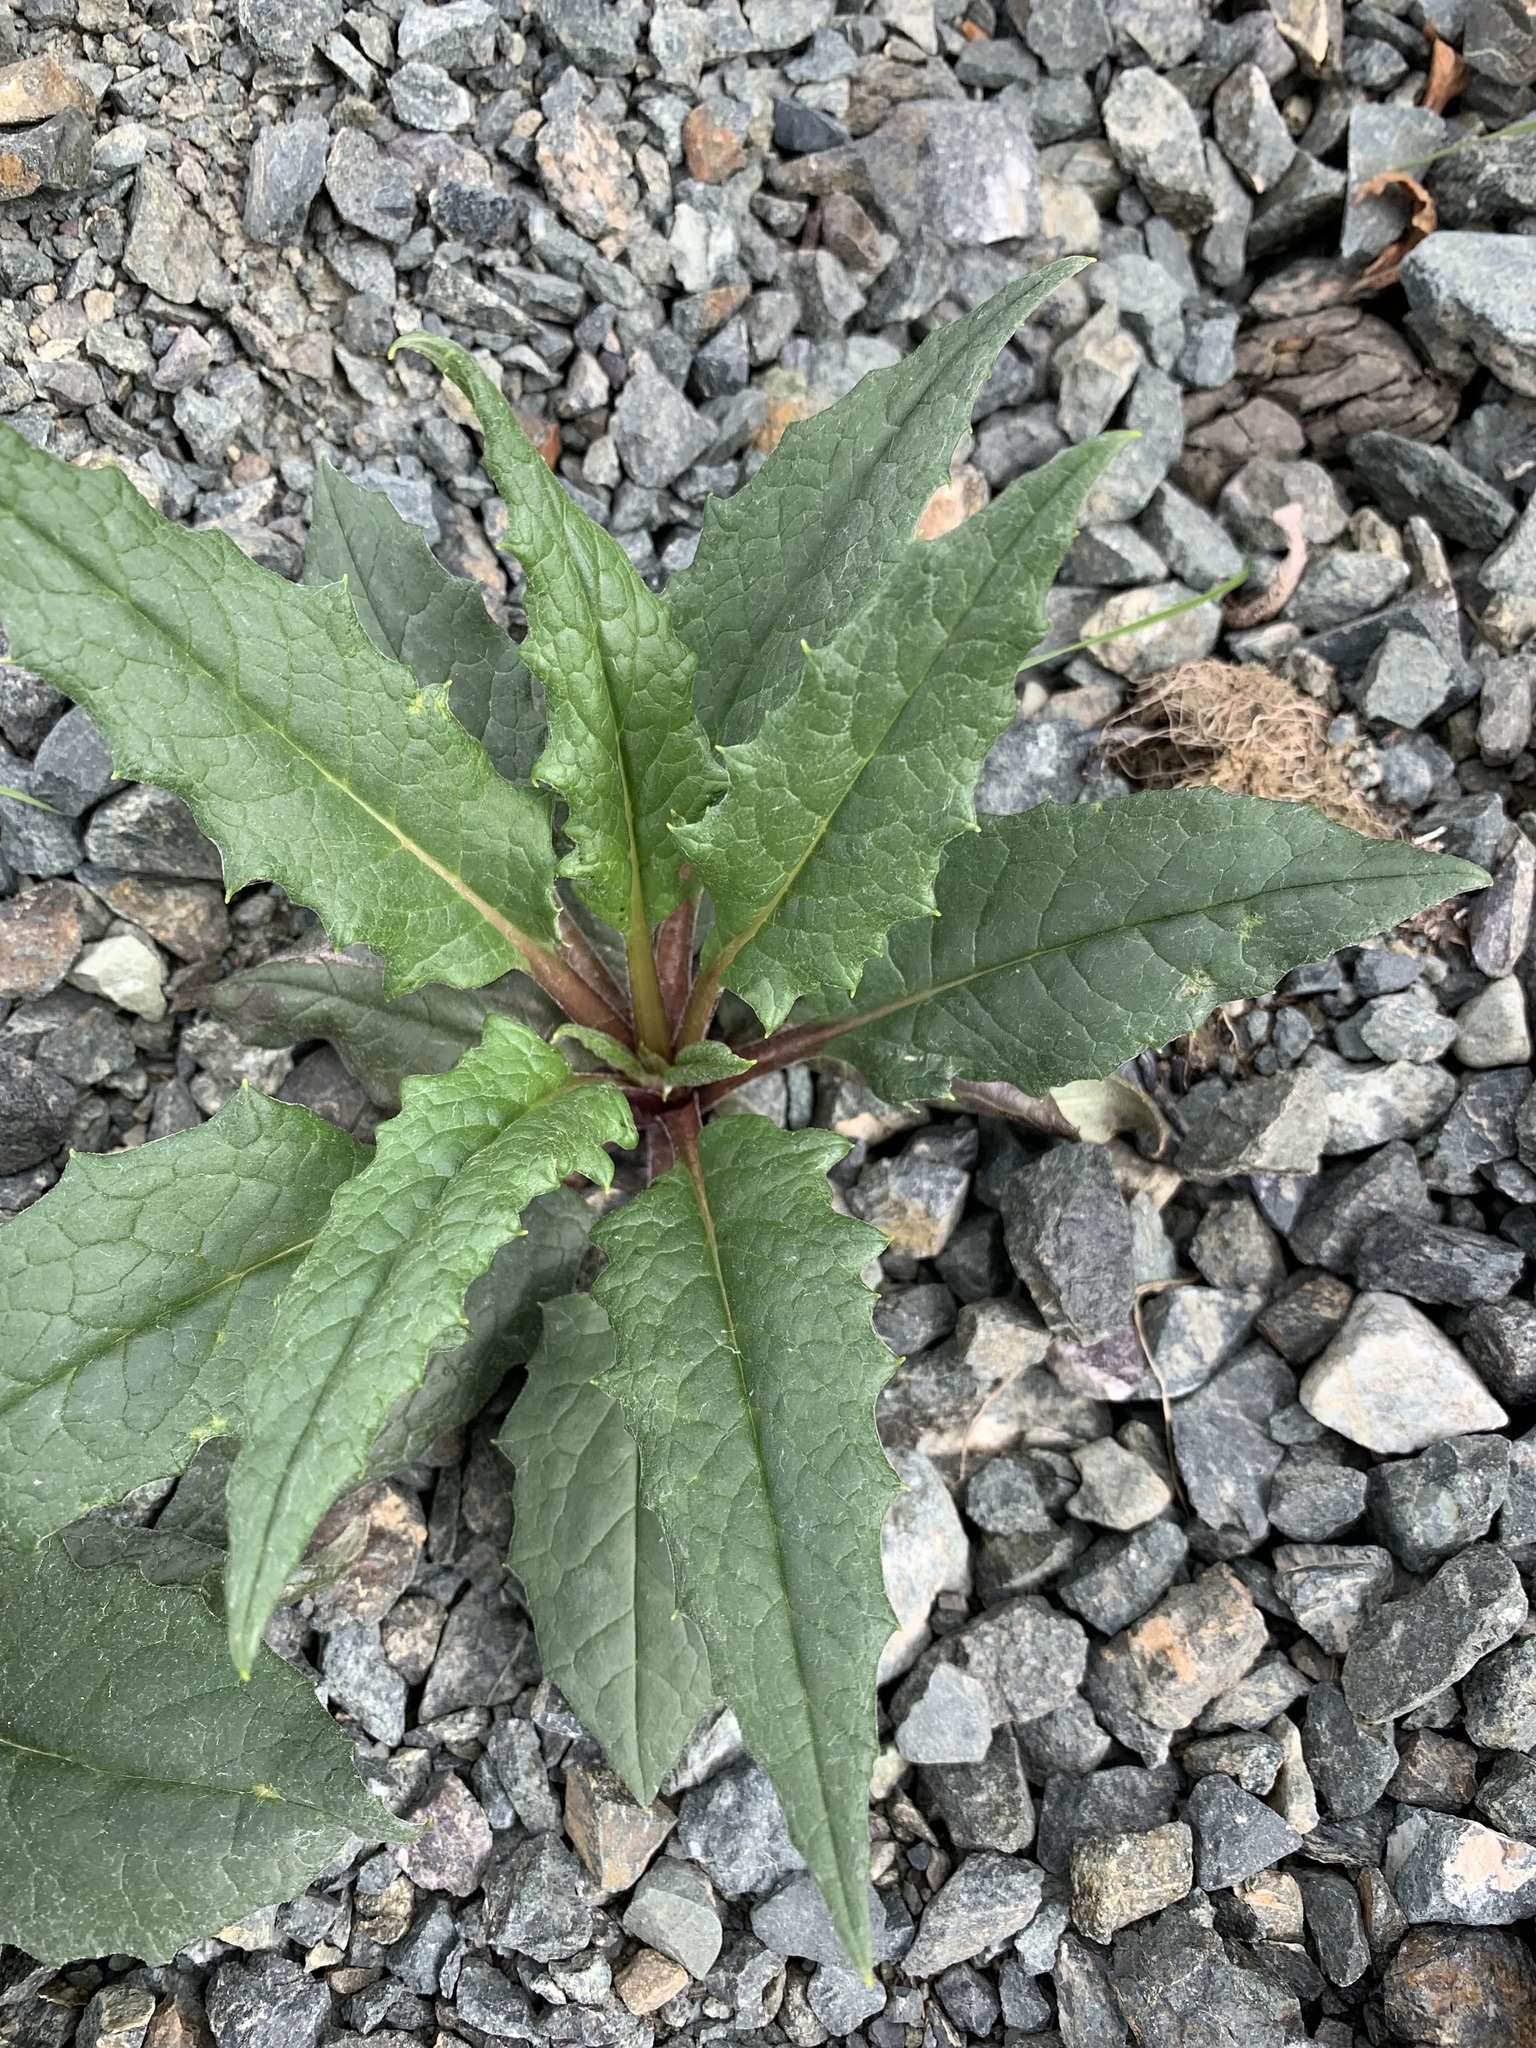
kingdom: Plantae
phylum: Tracheophyta
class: Magnoliopsida
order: Asterales
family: Asteraceae
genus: Saussurea
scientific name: Saussurea alpina
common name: Alpine saw-wort
